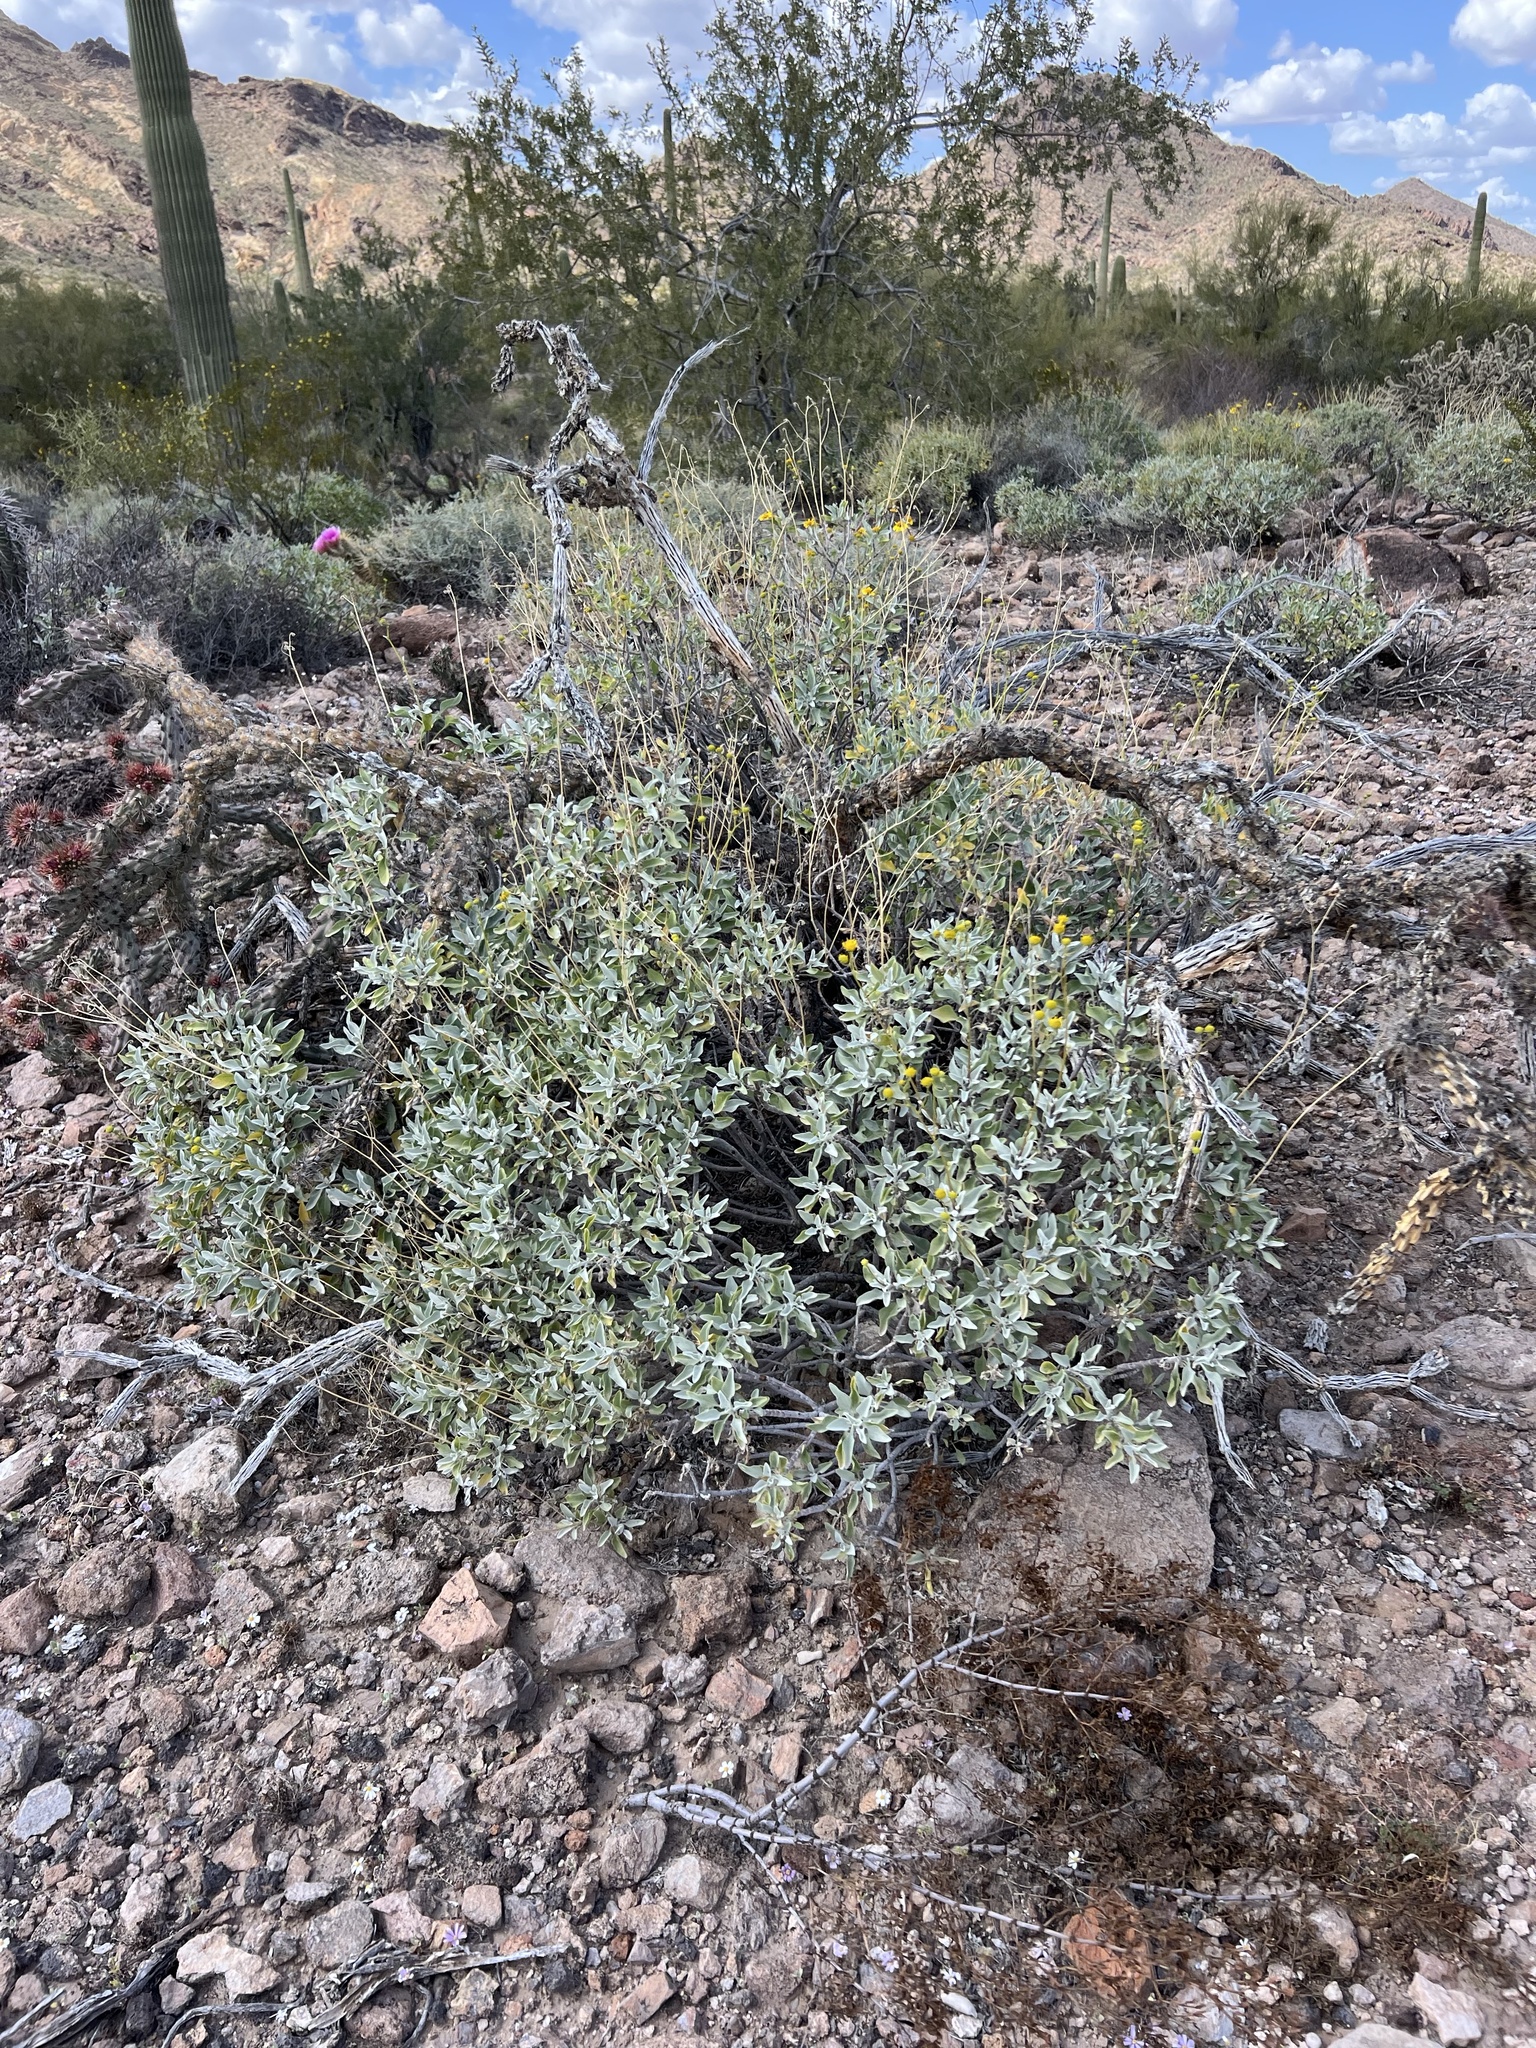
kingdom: Plantae
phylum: Tracheophyta
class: Magnoliopsida
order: Asterales
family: Asteraceae
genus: Encelia
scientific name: Encelia farinosa
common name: Brittlebush
